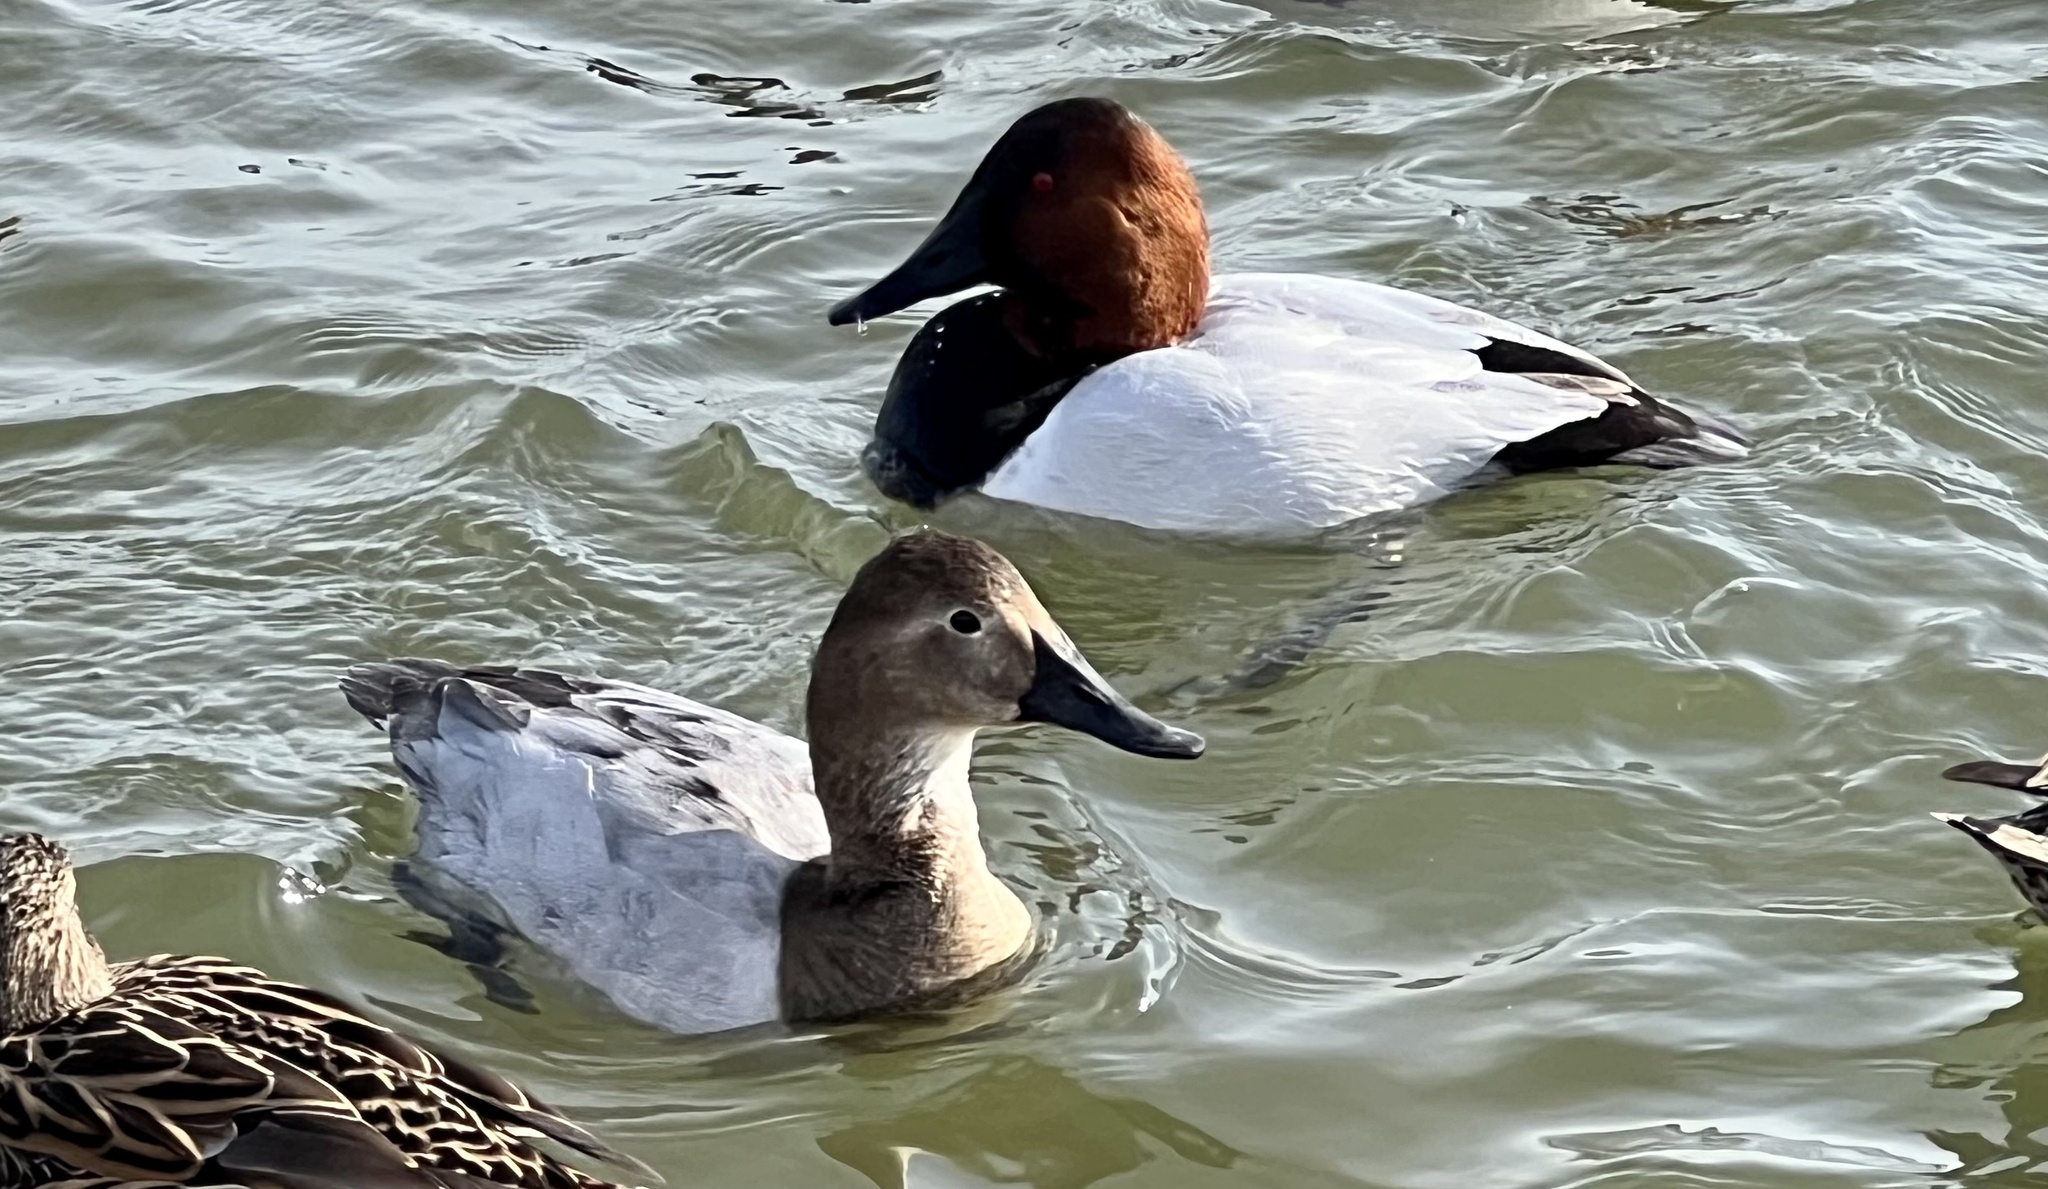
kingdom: Animalia
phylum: Chordata
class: Aves
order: Anseriformes
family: Anatidae
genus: Aythya
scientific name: Aythya valisineria
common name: Canvasback
